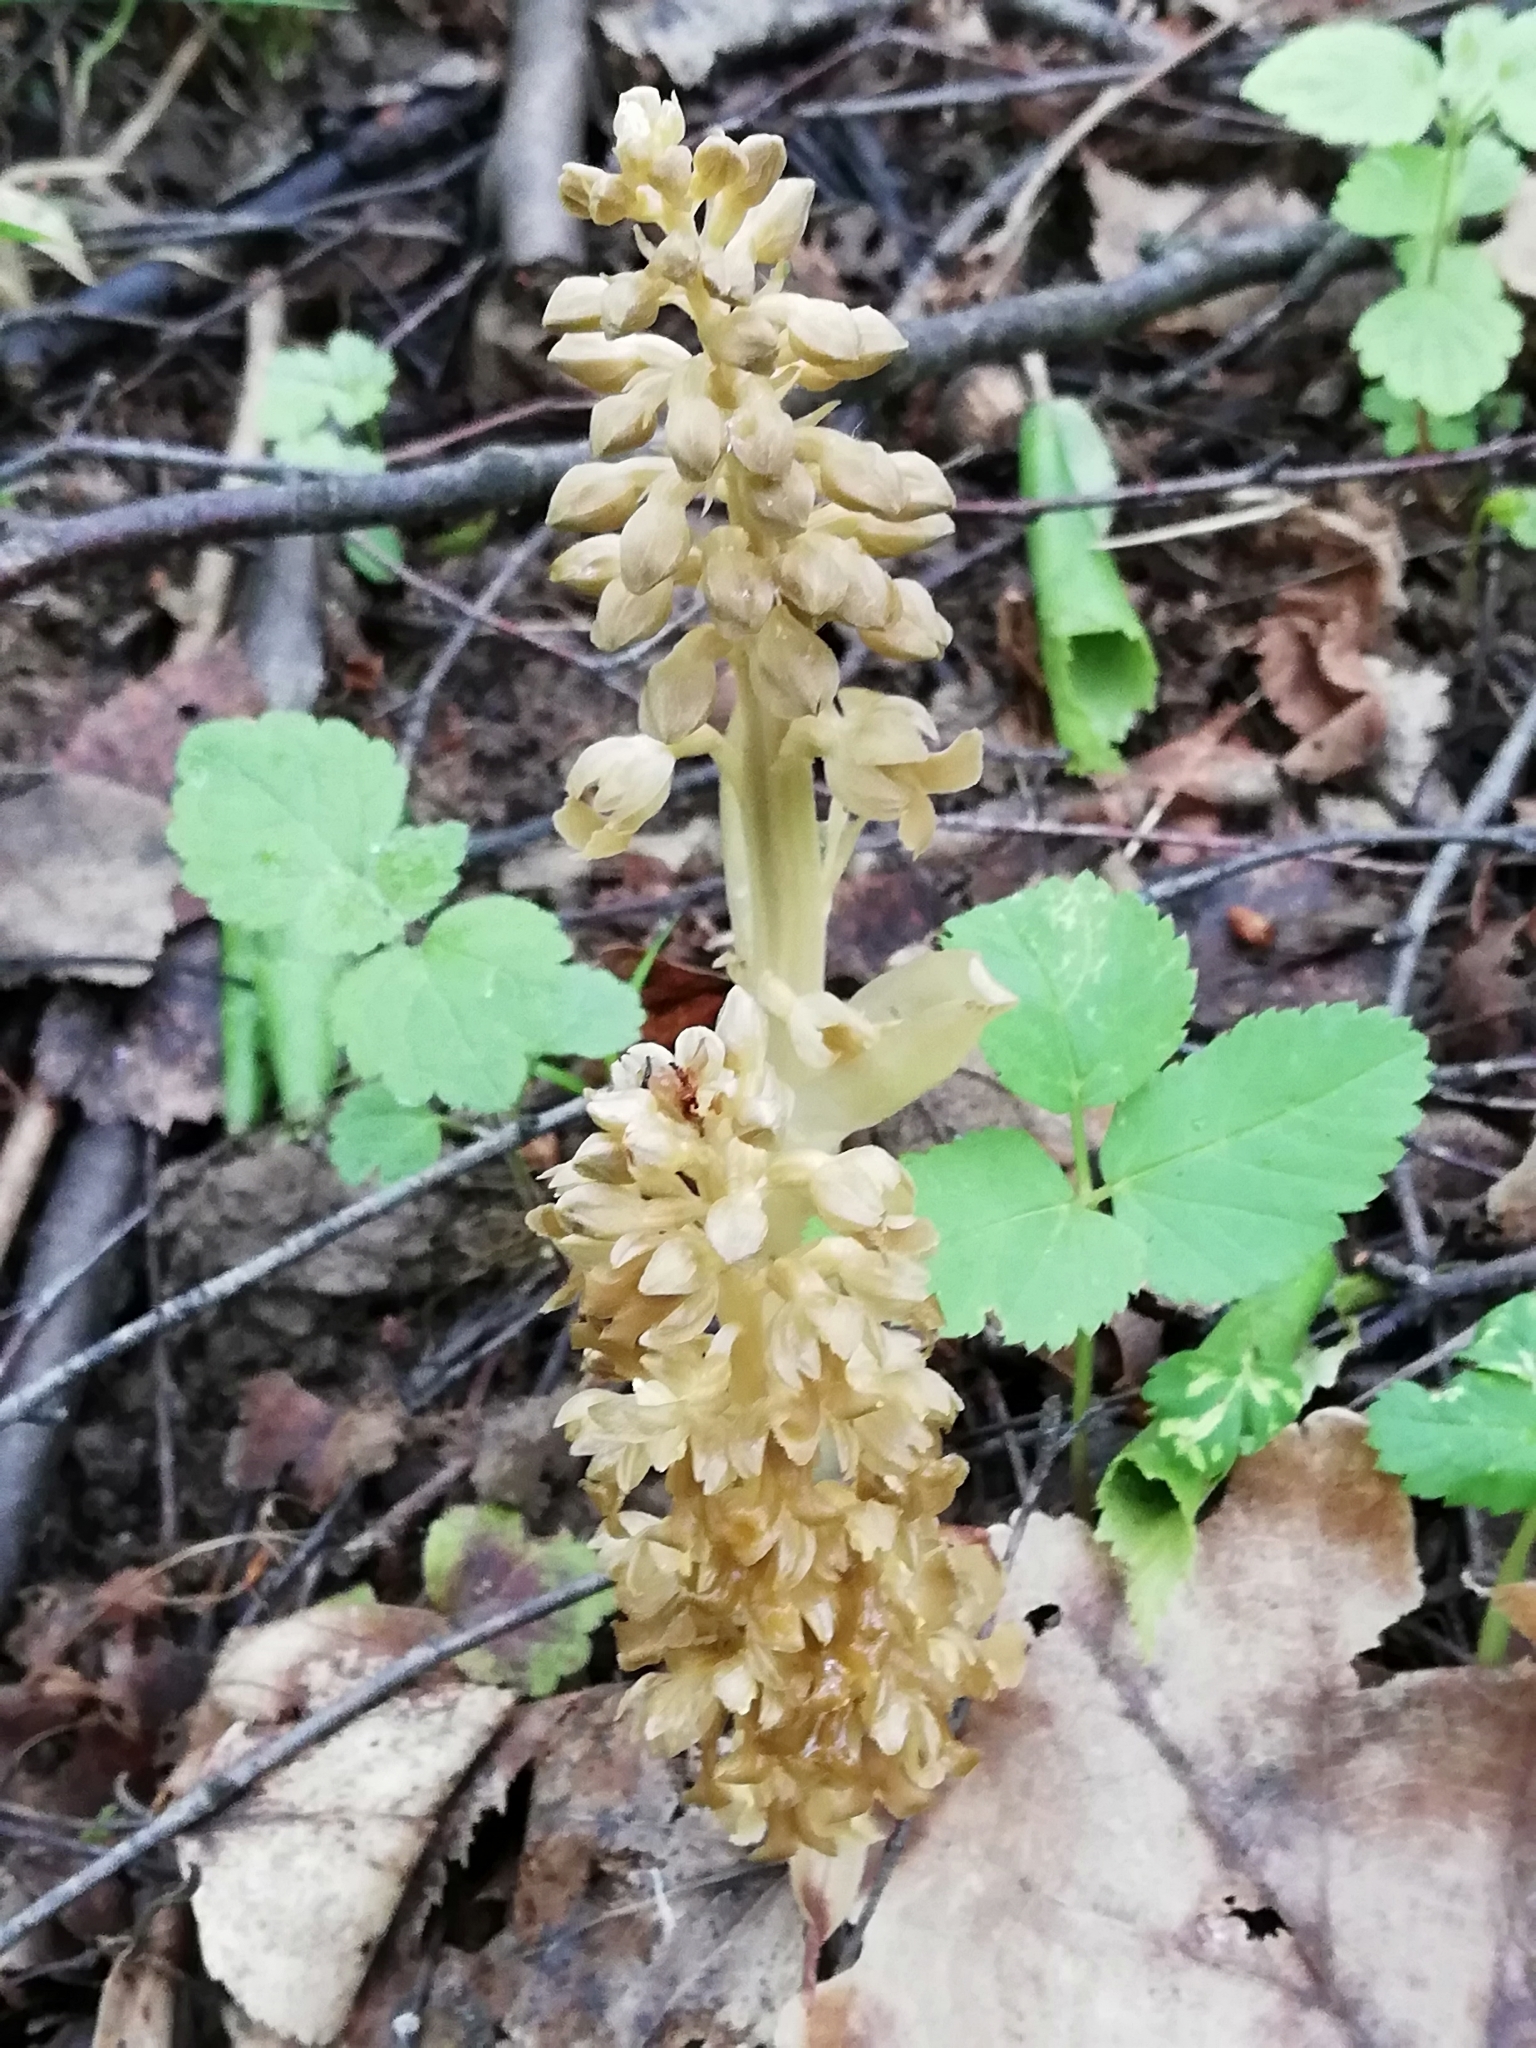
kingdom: Plantae
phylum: Tracheophyta
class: Liliopsida
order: Asparagales
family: Orchidaceae
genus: Neottia
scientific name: Neottia nidus-avis
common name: Bird's-nest orchid
